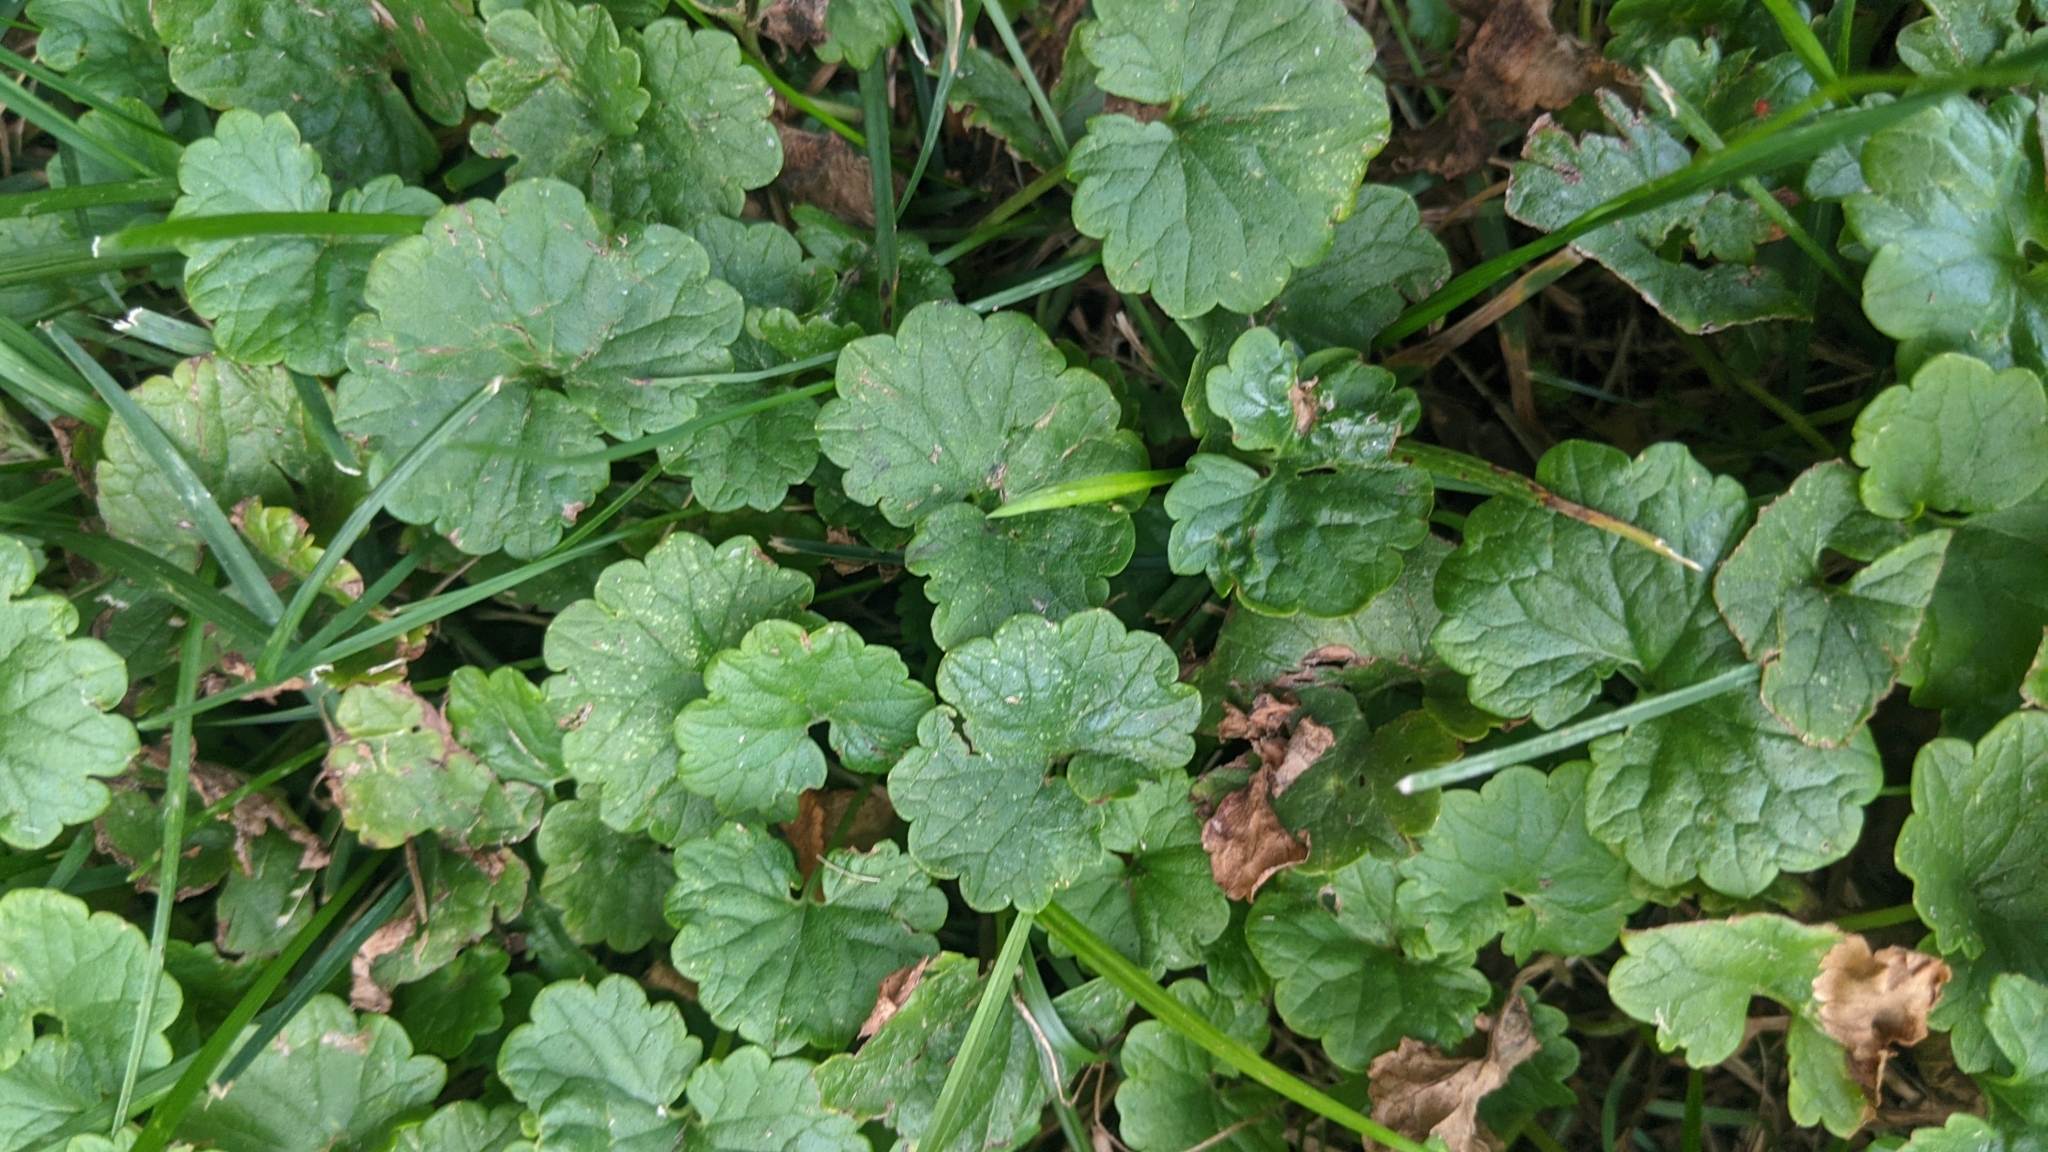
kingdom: Plantae
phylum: Tracheophyta
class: Magnoliopsida
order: Lamiales
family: Lamiaceae
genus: Glechoma
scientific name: Glechoma hederacea
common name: Ground ivy
